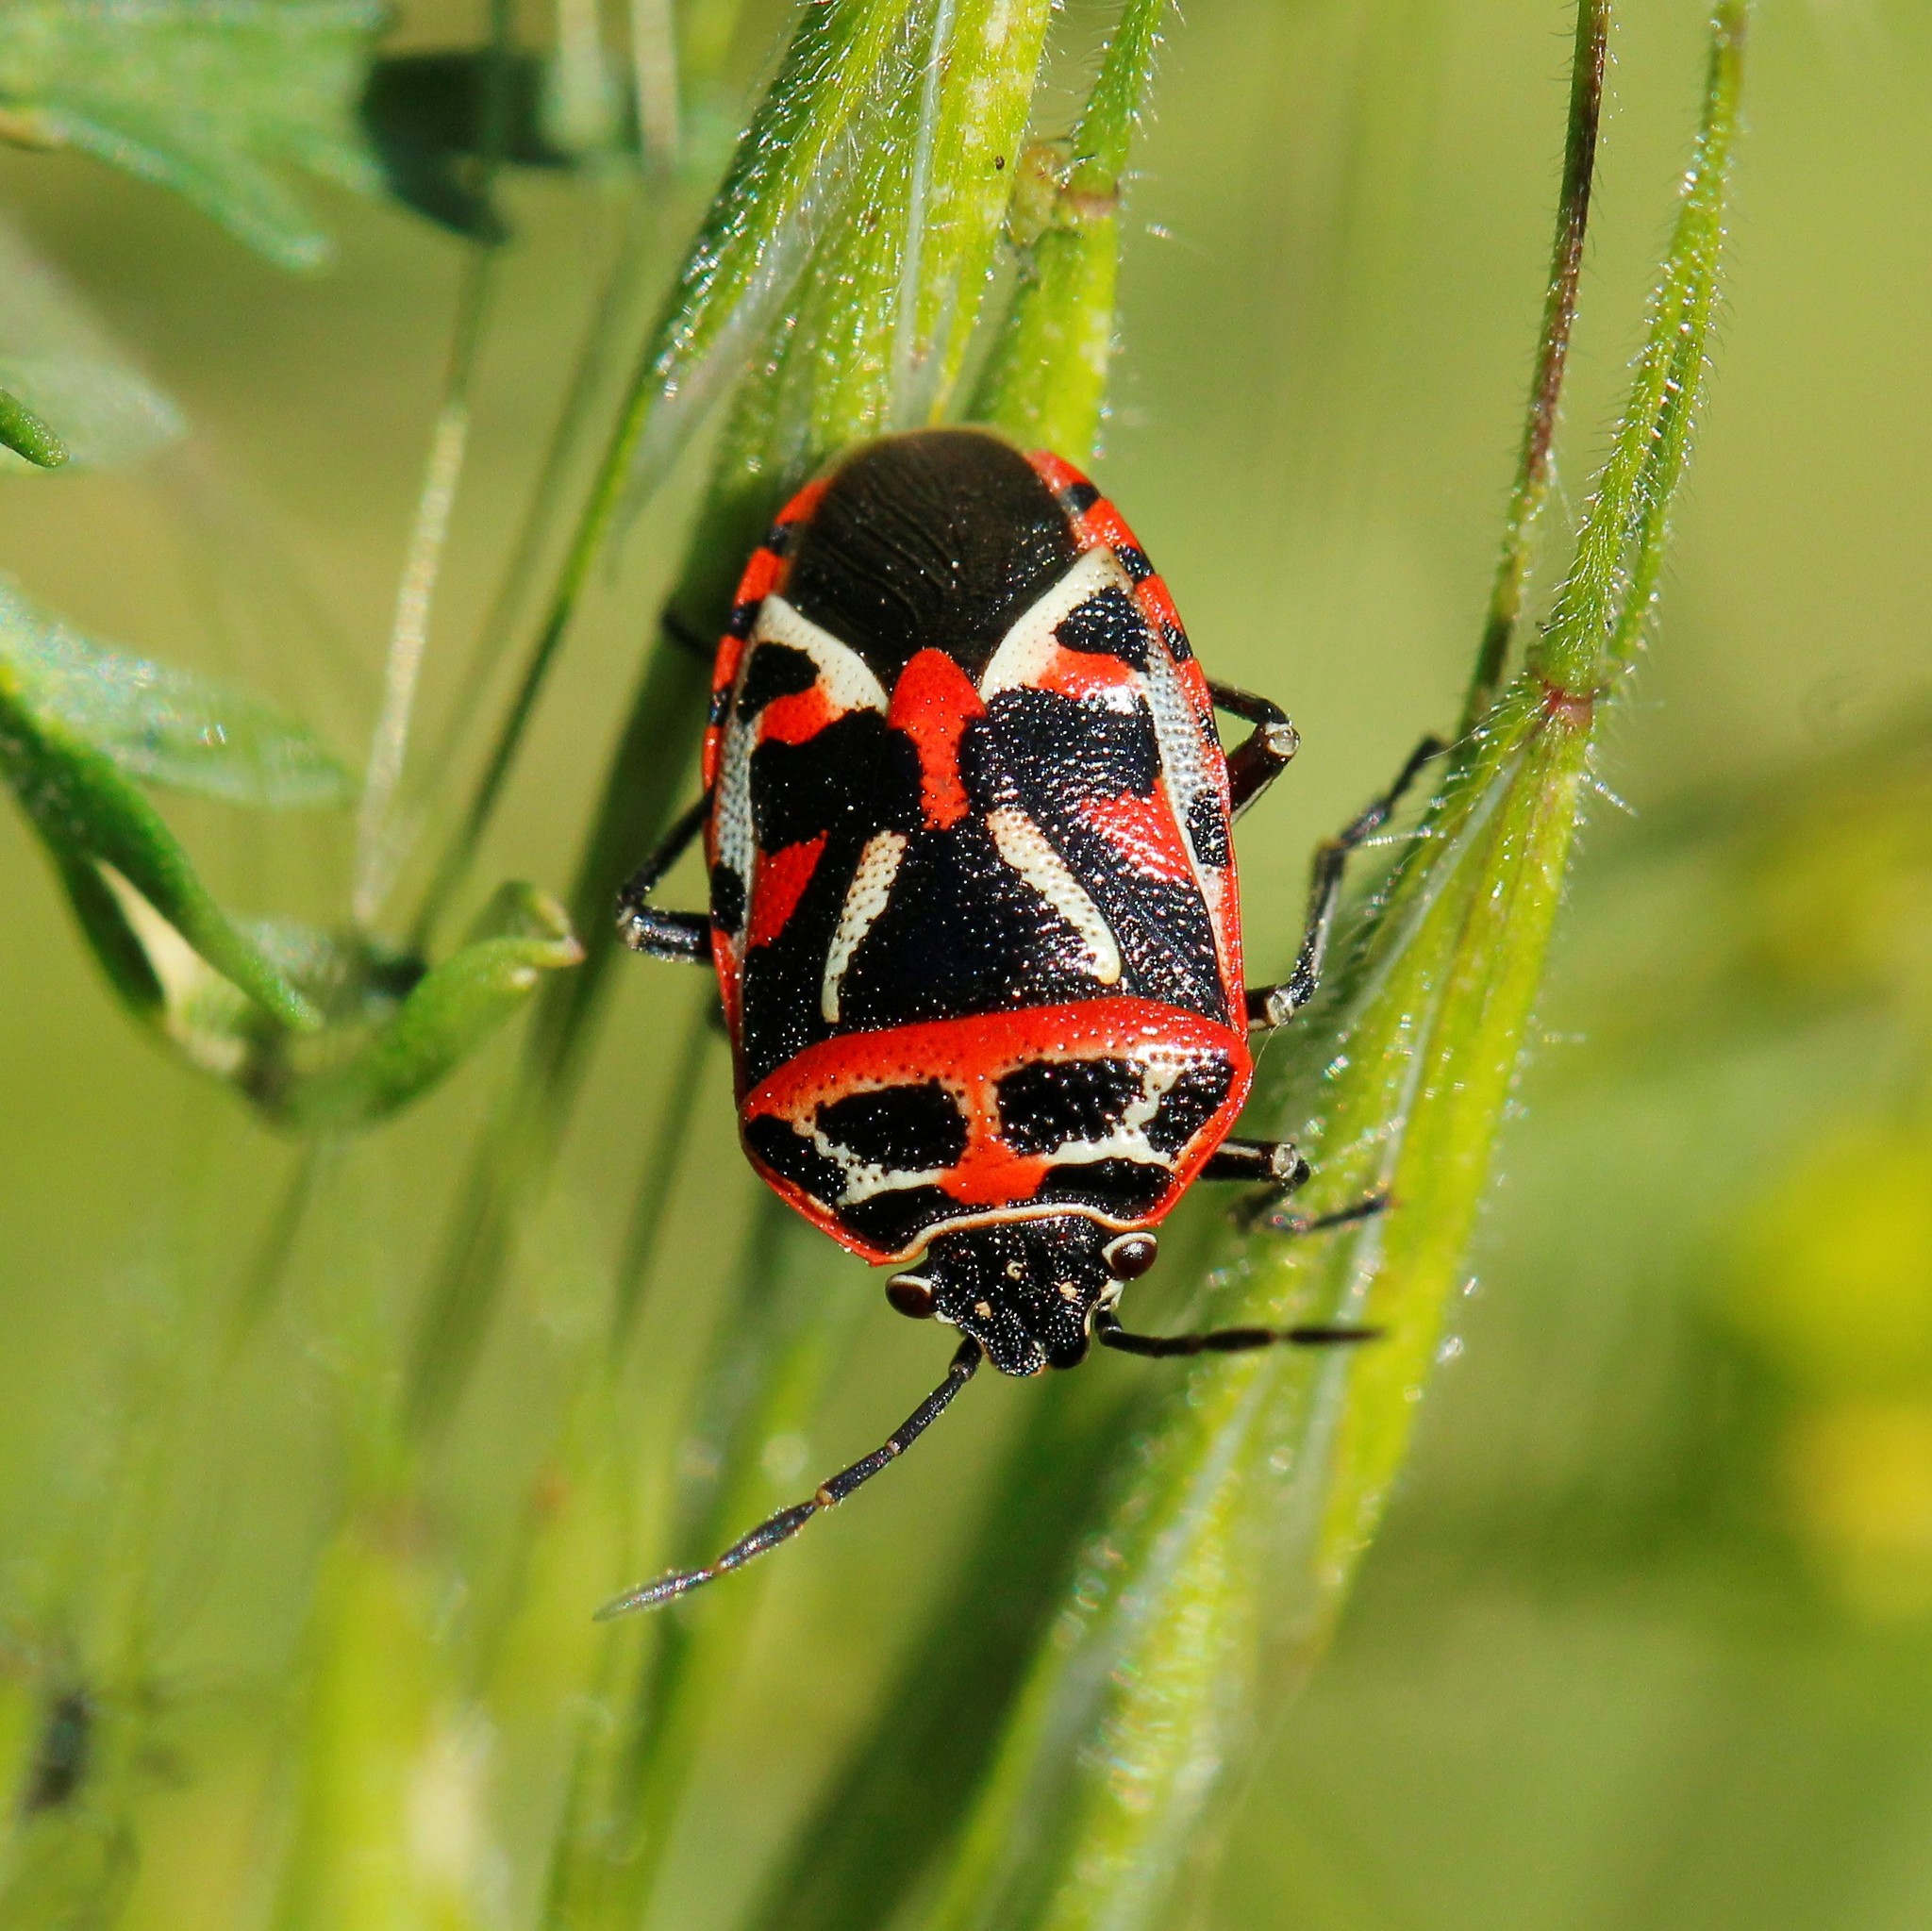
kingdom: Animalia
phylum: Arthropoda
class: Insecta
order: Hemiptera
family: Pentatomidae
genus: Eurydema
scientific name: Eurydema ornata
